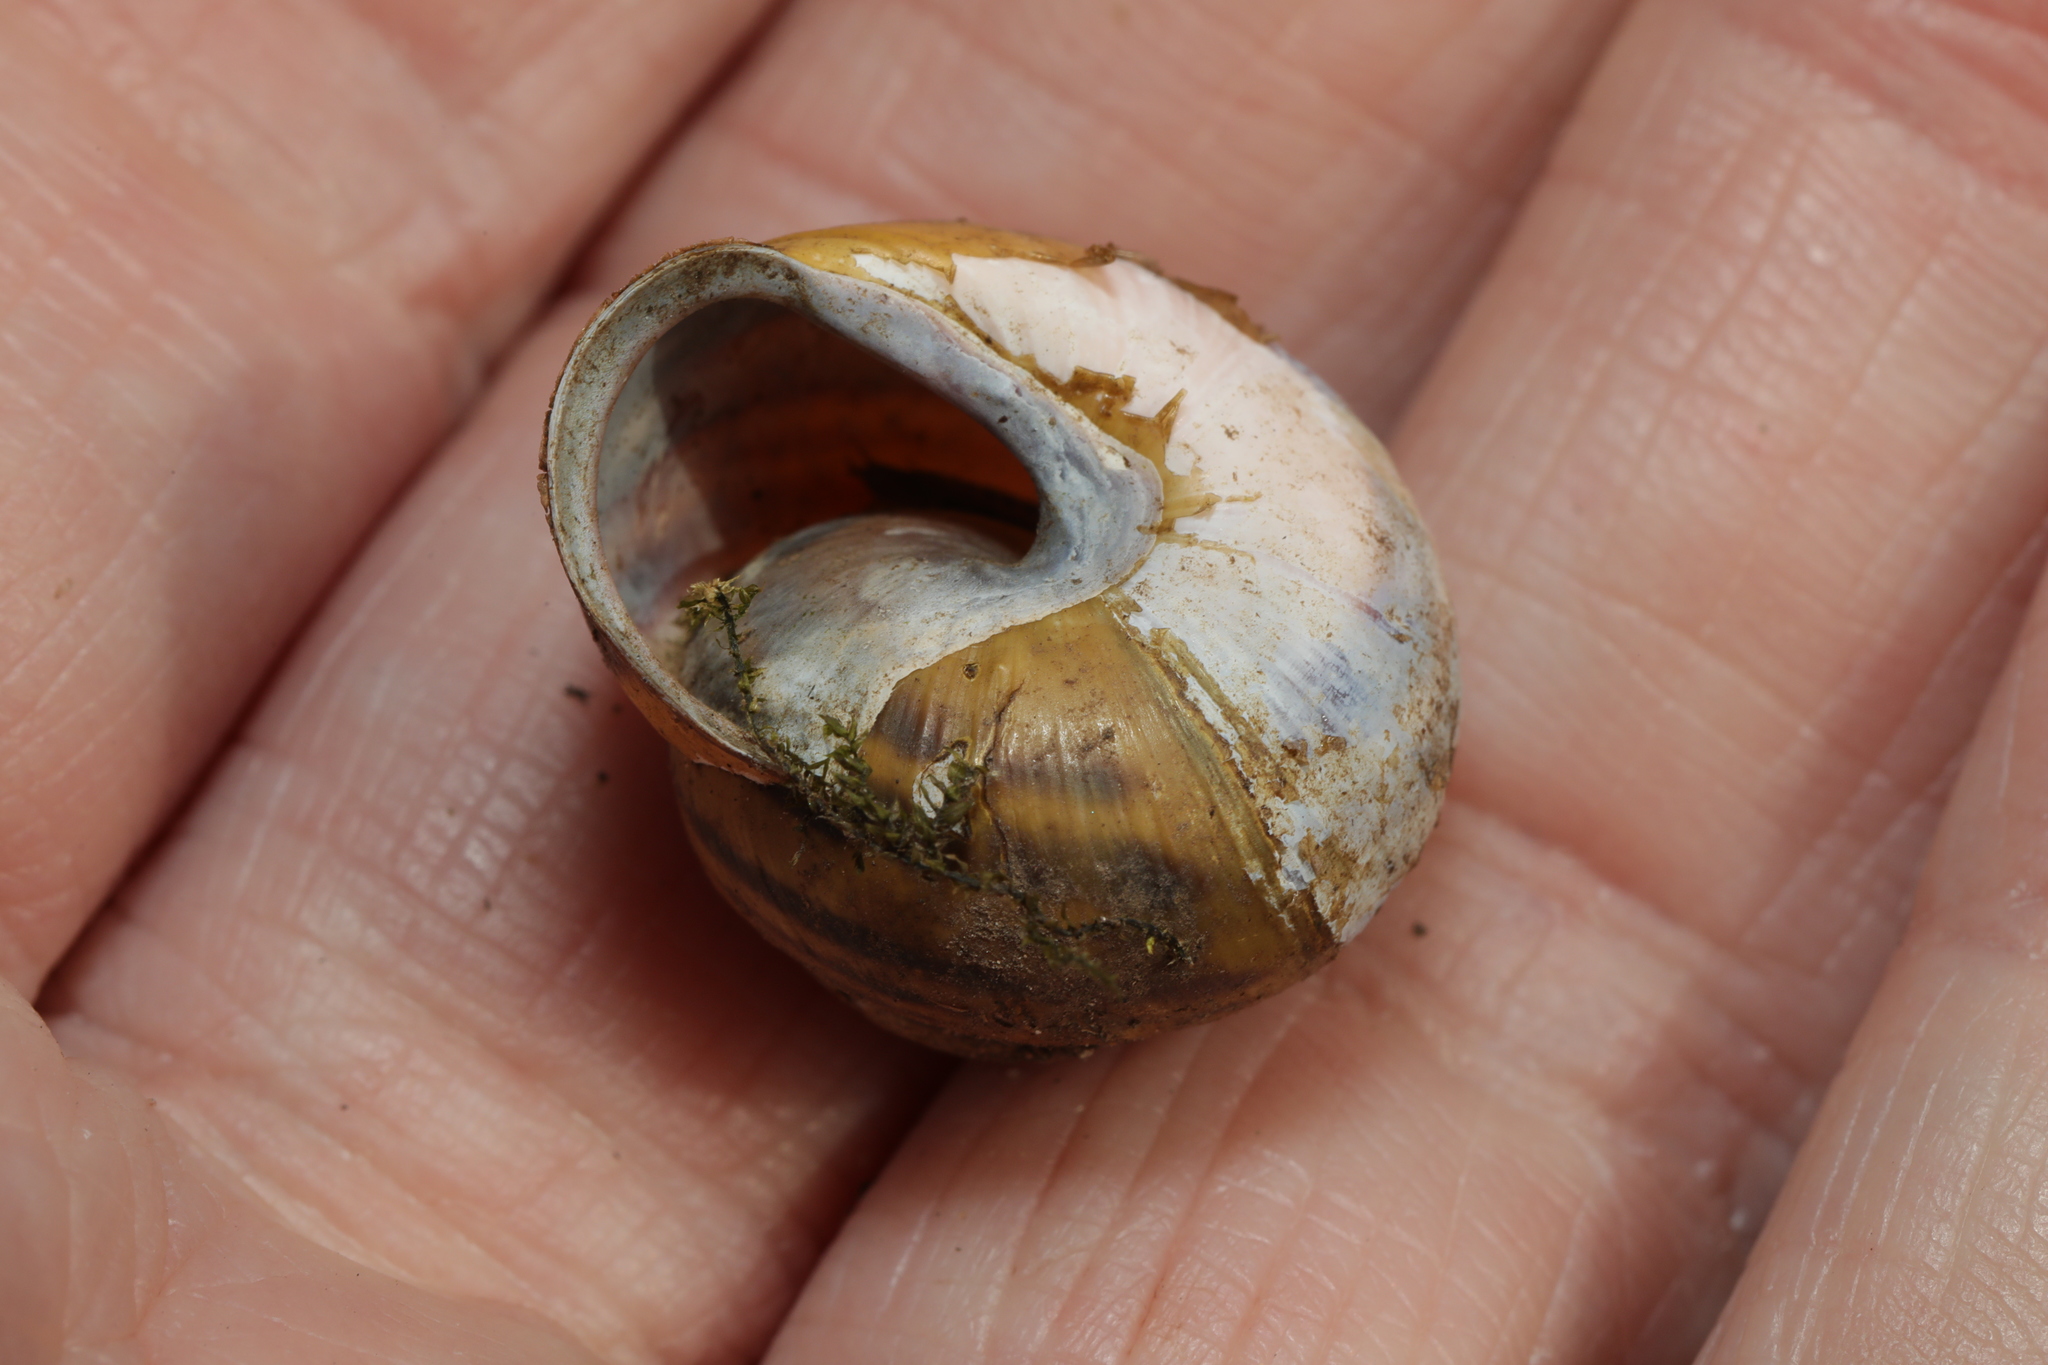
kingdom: Animalia
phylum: Mollusca
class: Gastropoda
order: Stylommatophora
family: Helicidae
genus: Cepaea
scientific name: Cepaea nemoralis
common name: Grovesnail
